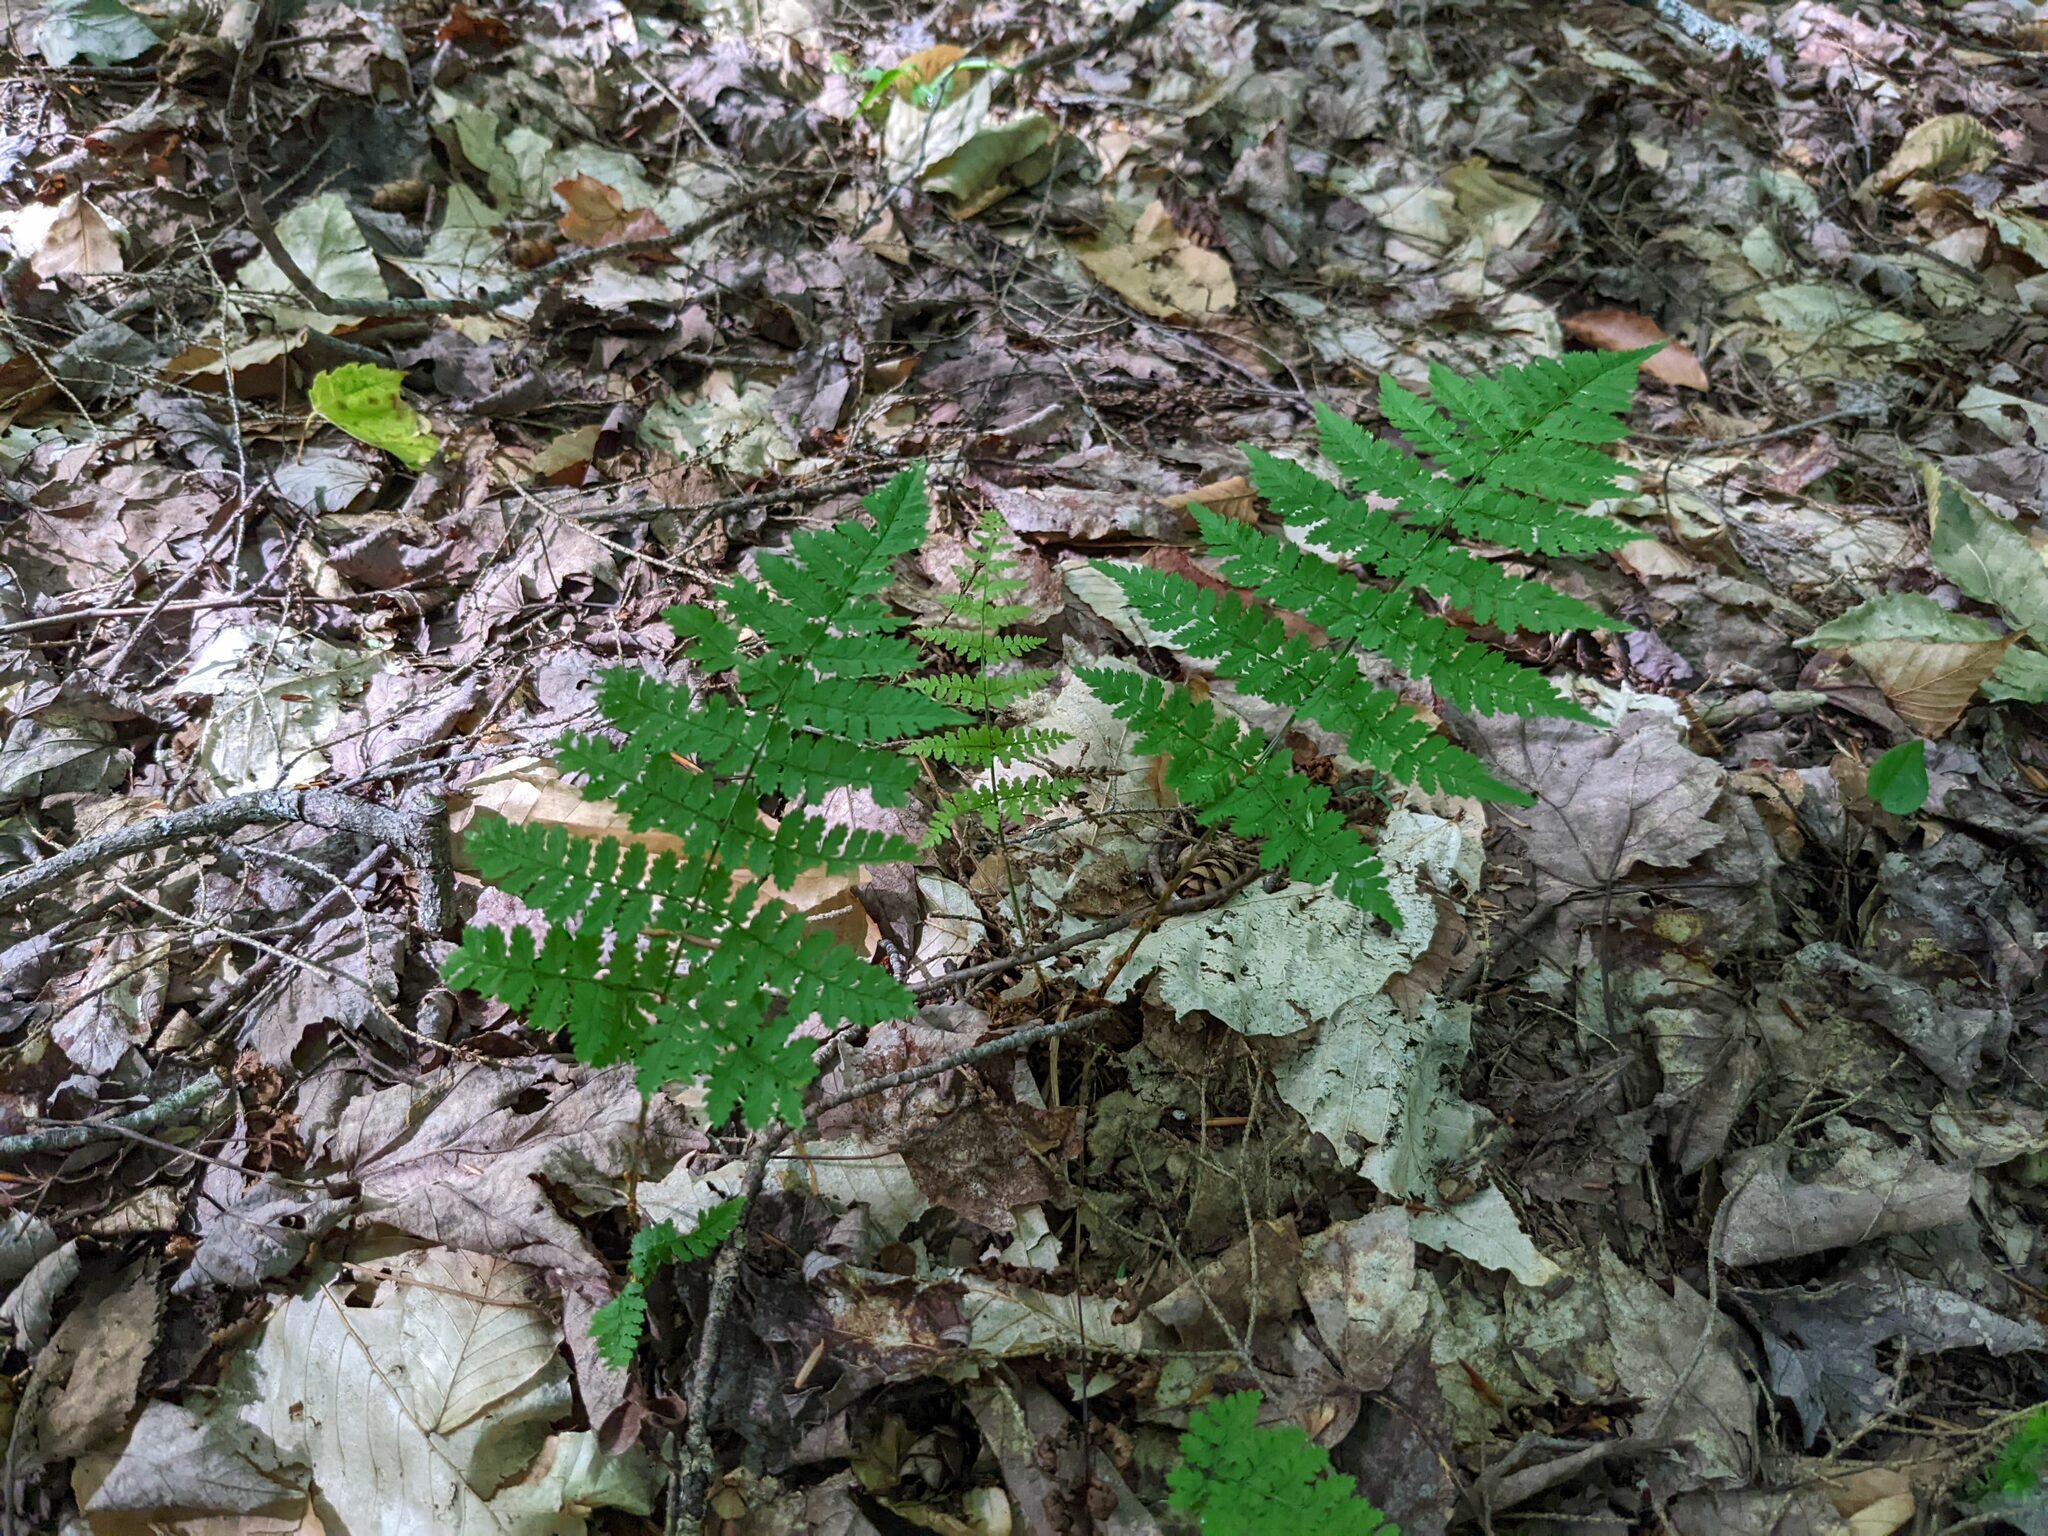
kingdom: Plantae
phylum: Tracheophyta
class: Polypodiopsida
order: Polypodiales
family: Dryopteridaceae
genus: Dryopteris
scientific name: Dryopteris intermedia
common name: Evergreen wood fern
